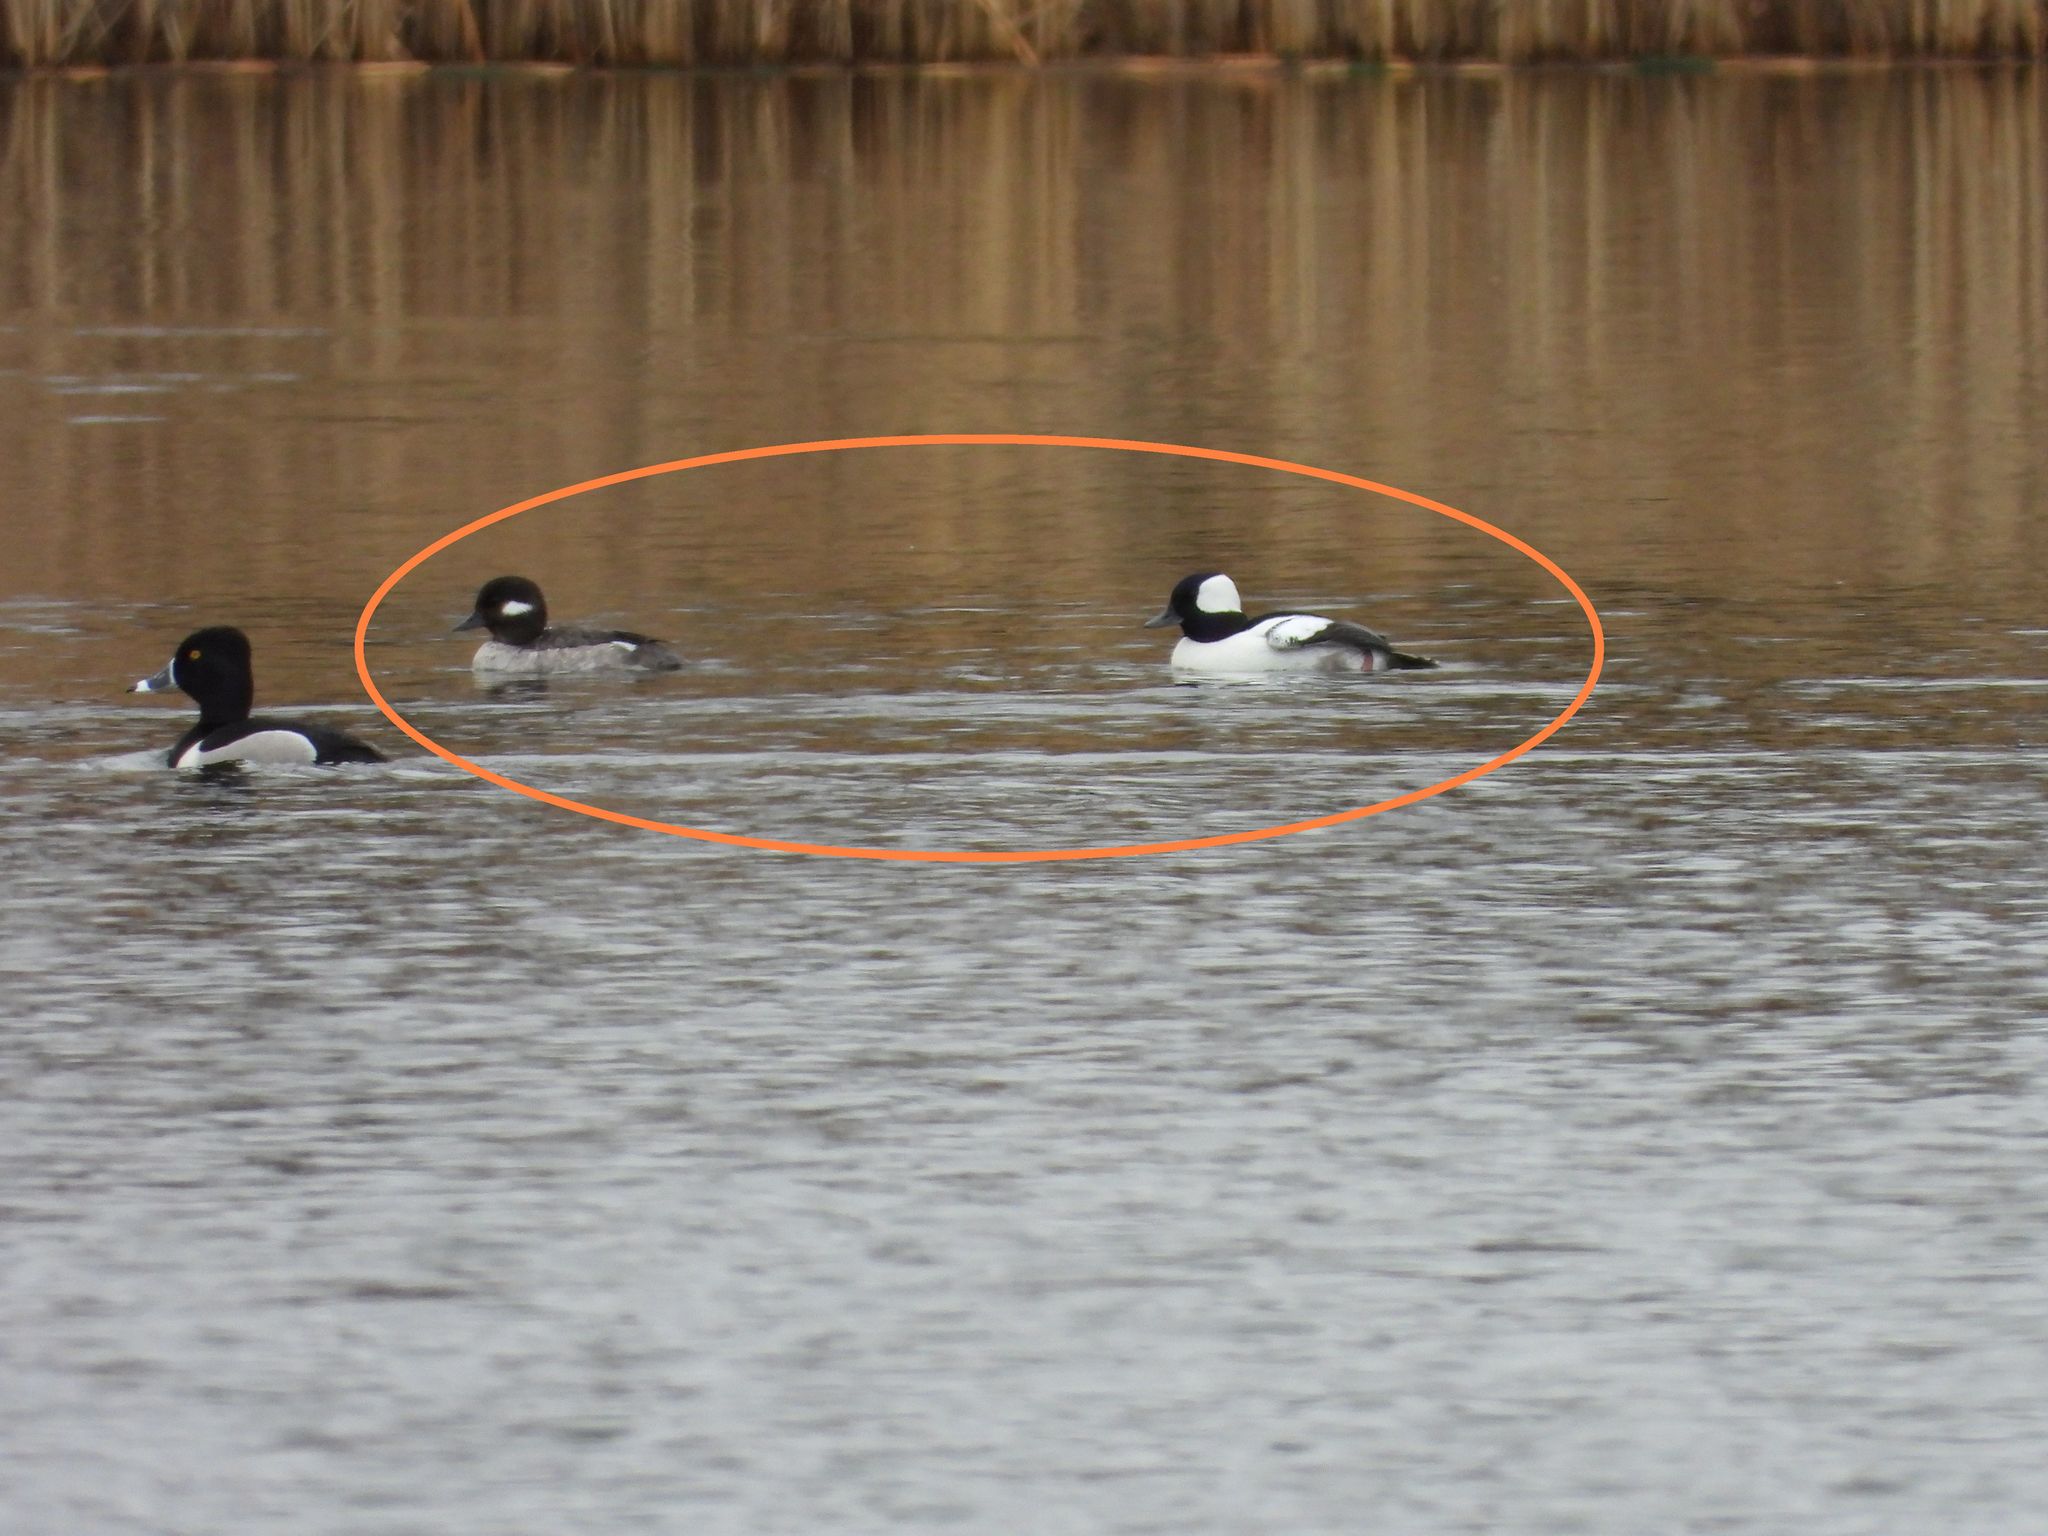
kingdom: Animalia
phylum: Chordata
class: Aves
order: Anseriformes
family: Anatidae
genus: Bucephala
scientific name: Bucephala albeola
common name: Bufflehead
